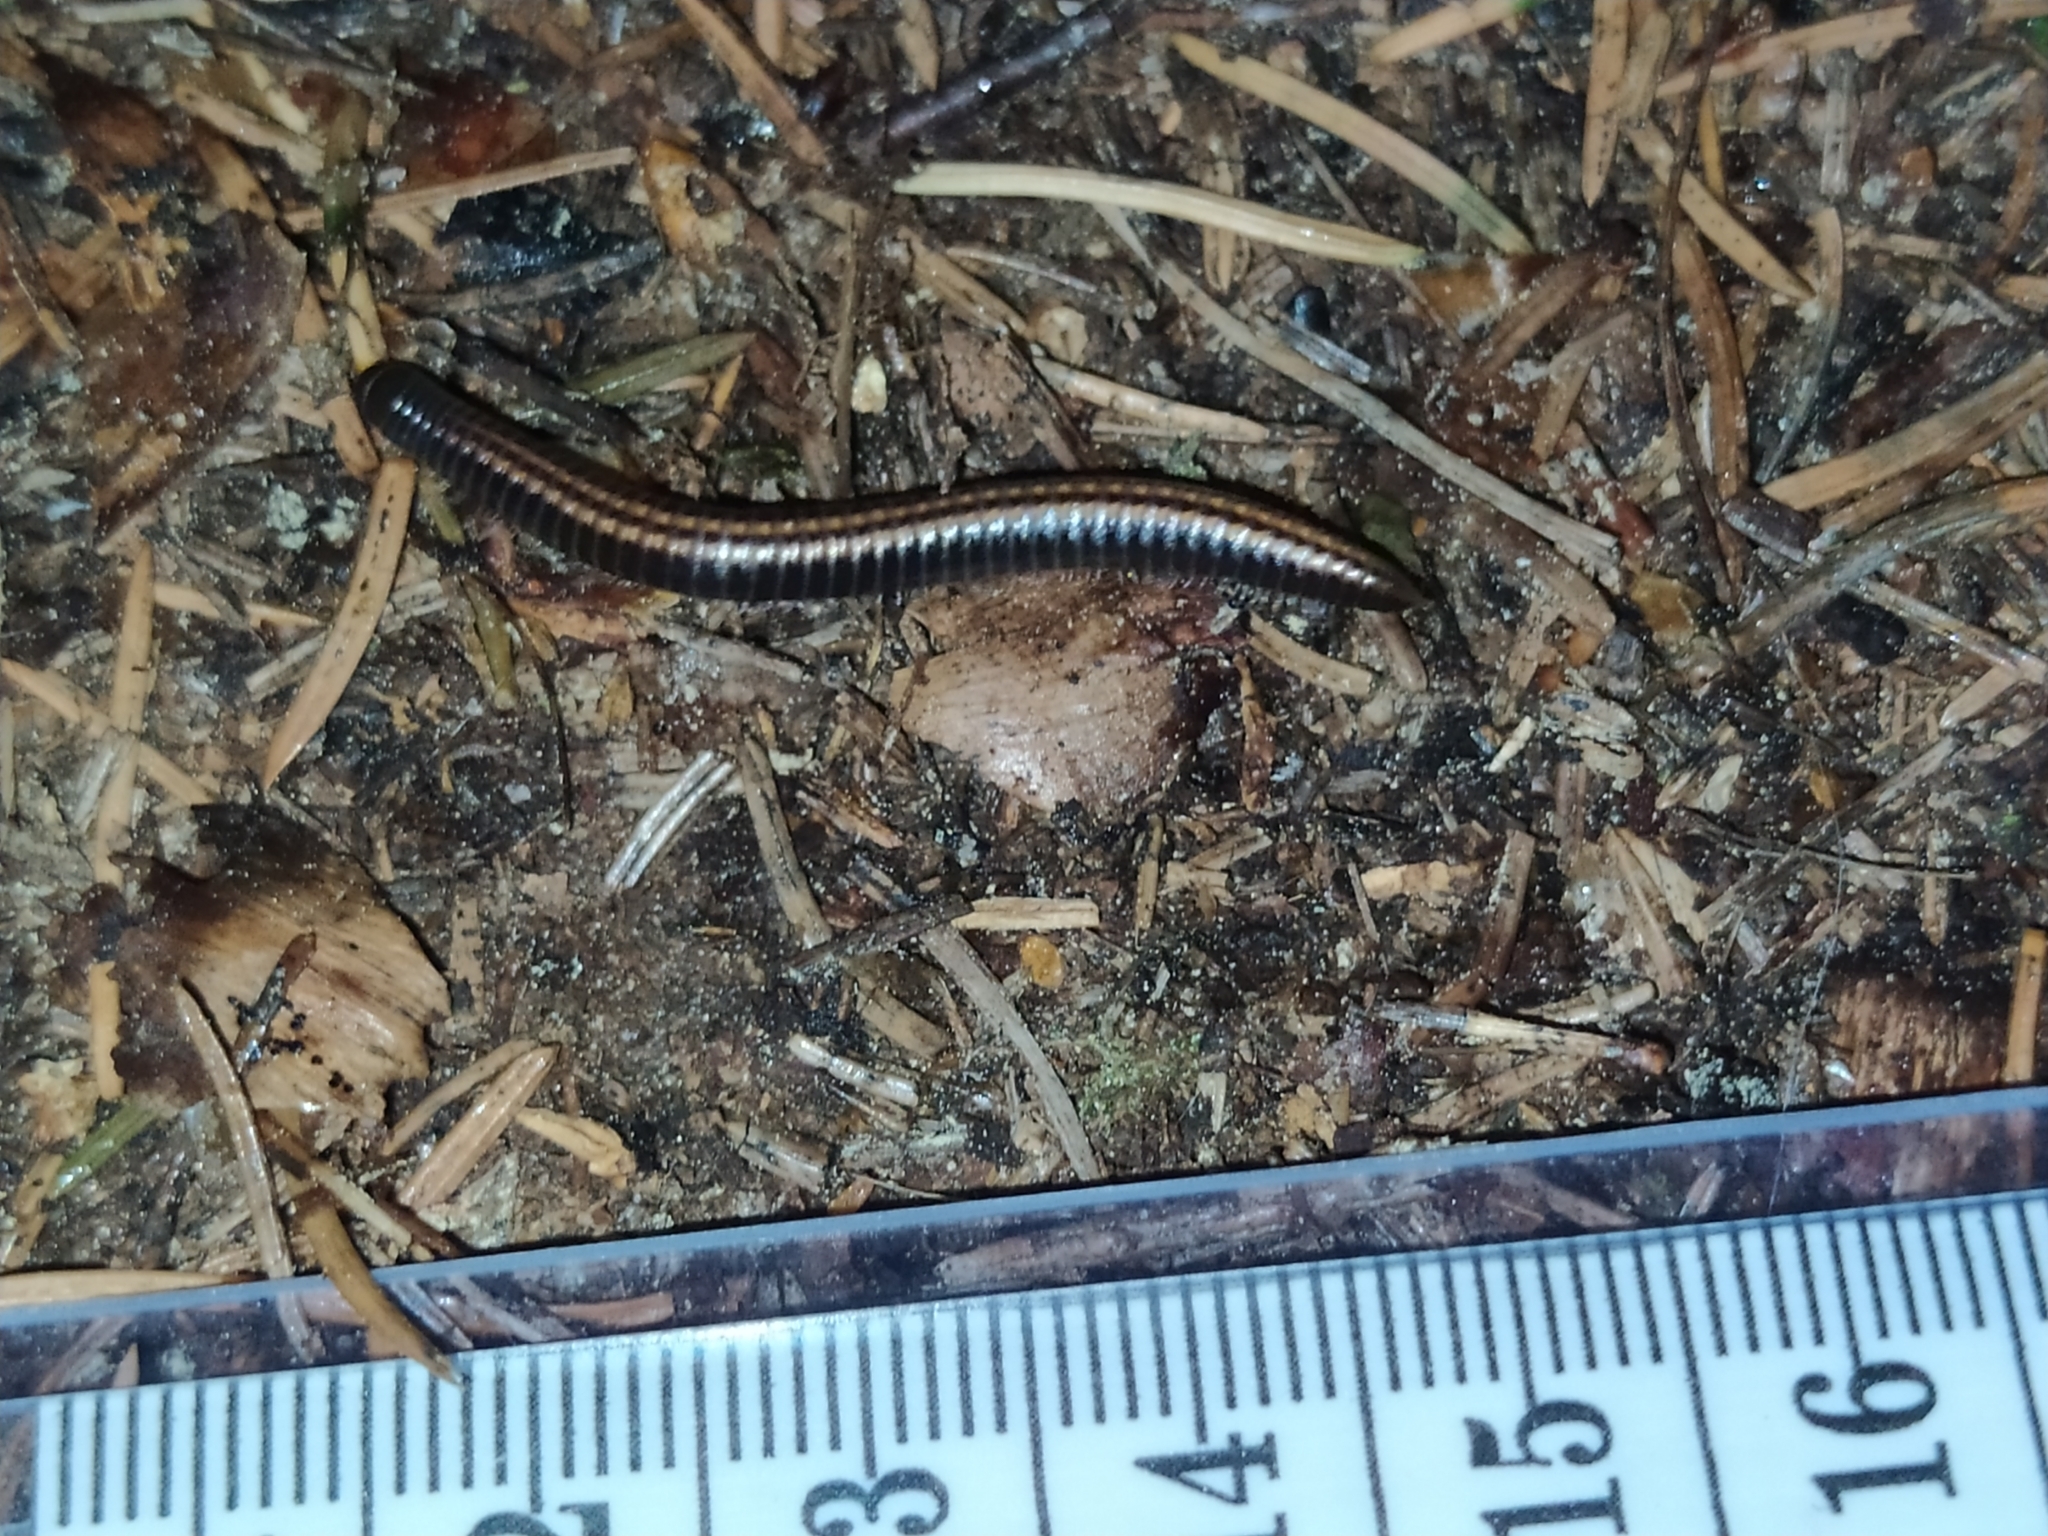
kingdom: Animalia
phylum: Arthropoda
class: Diplopoda
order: Julida
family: Julidae
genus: Ommatoiulus
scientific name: Ommatoiulus sabulosus
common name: Striped millipede
